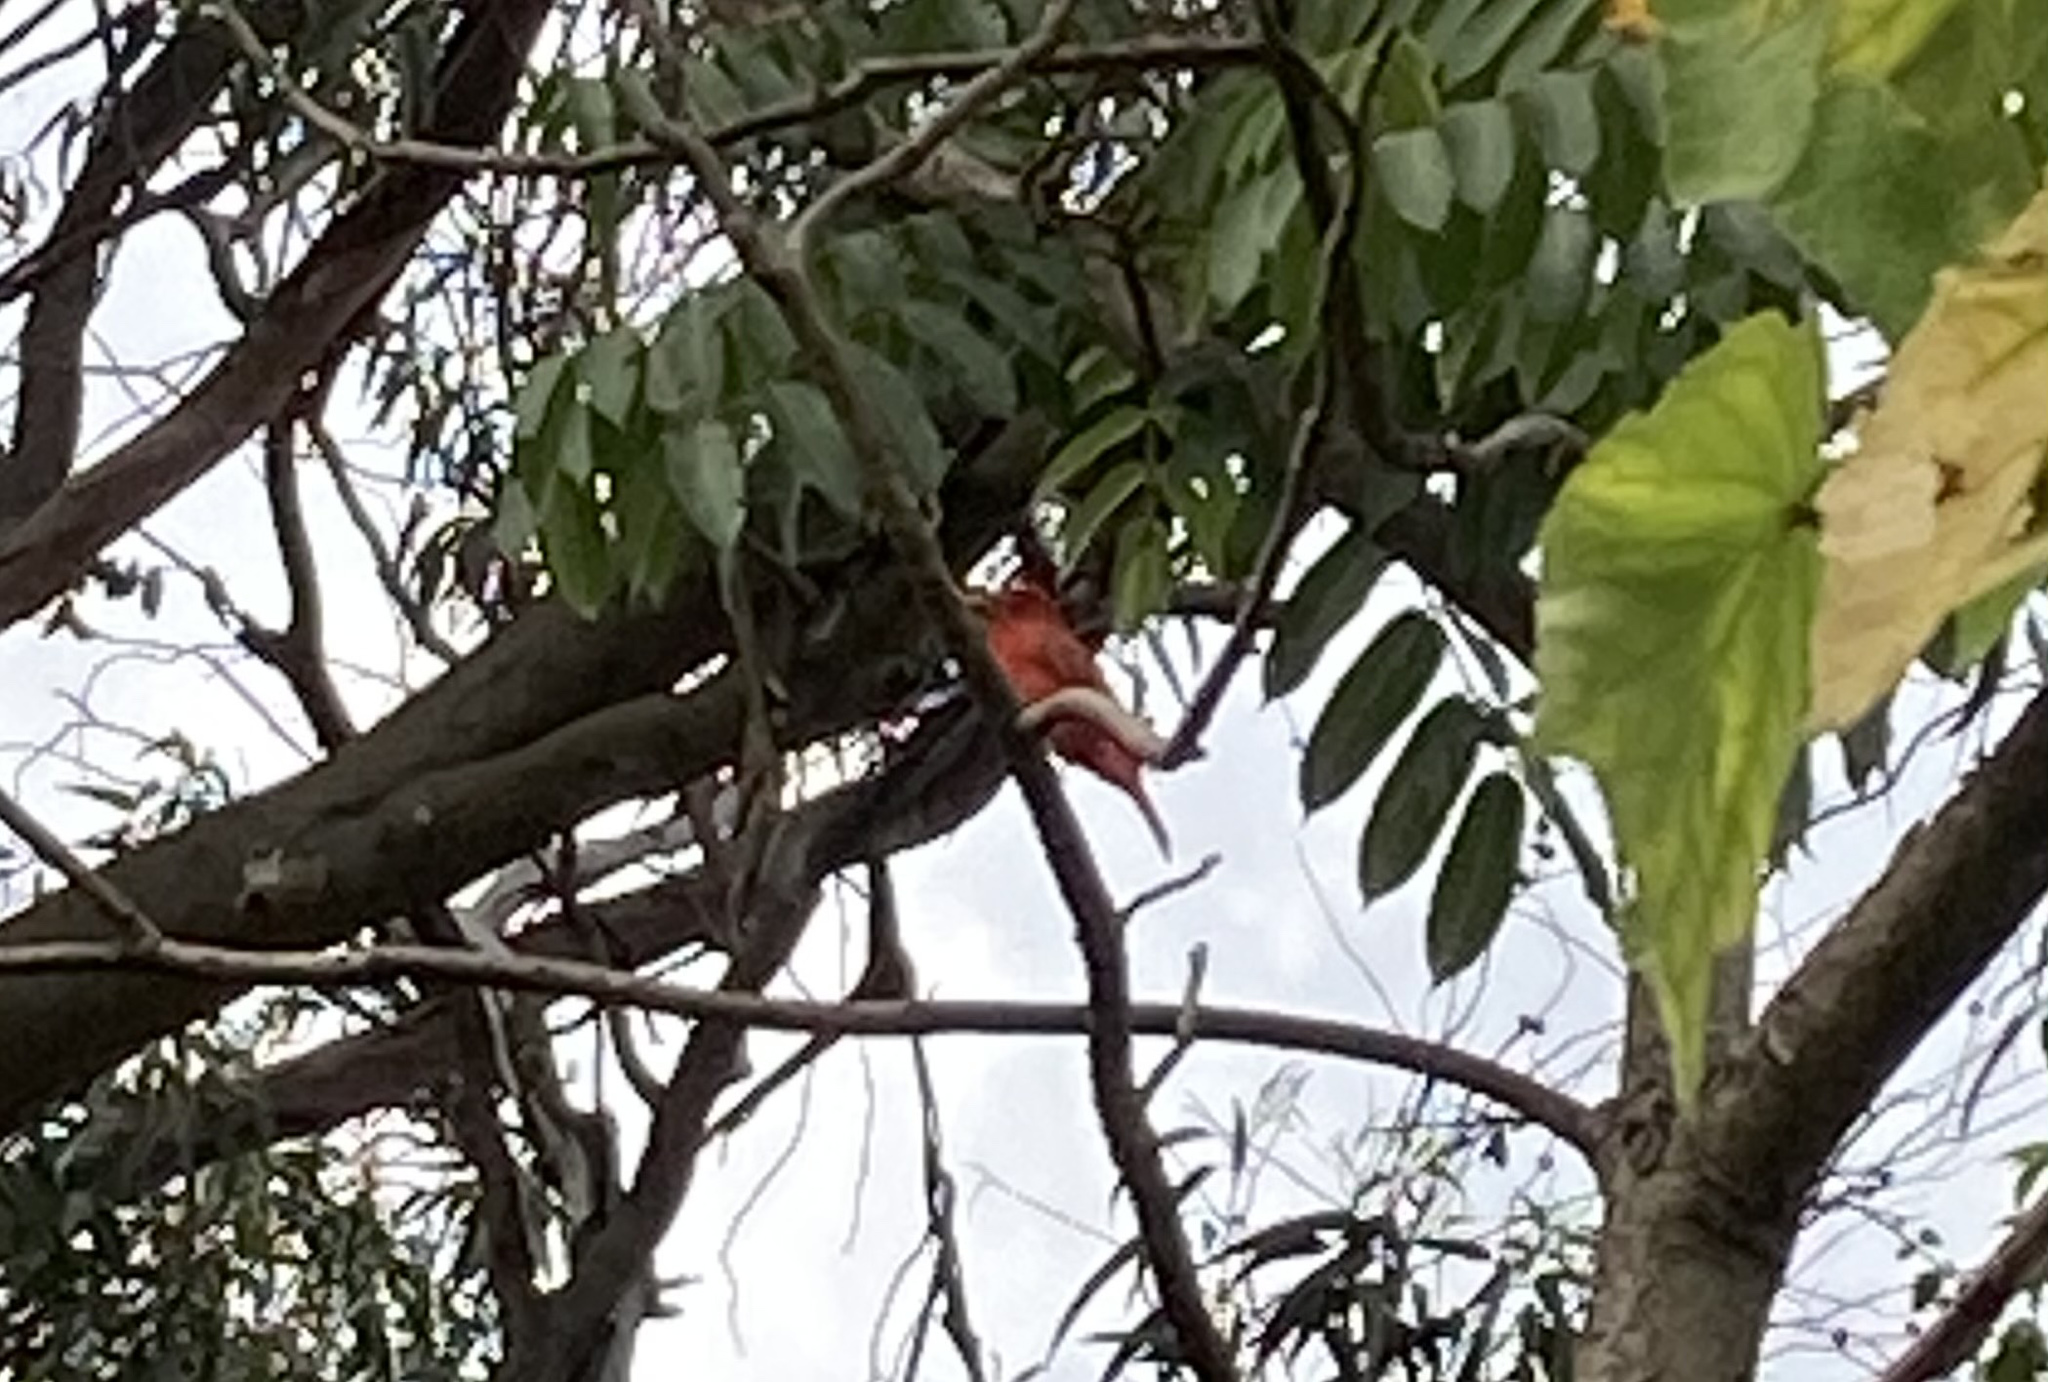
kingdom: Animalia
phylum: Chordata
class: Aves
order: Passeriformes
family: Cardinalidae
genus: Piranga
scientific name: Piranga rubra
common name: Summer tanager
